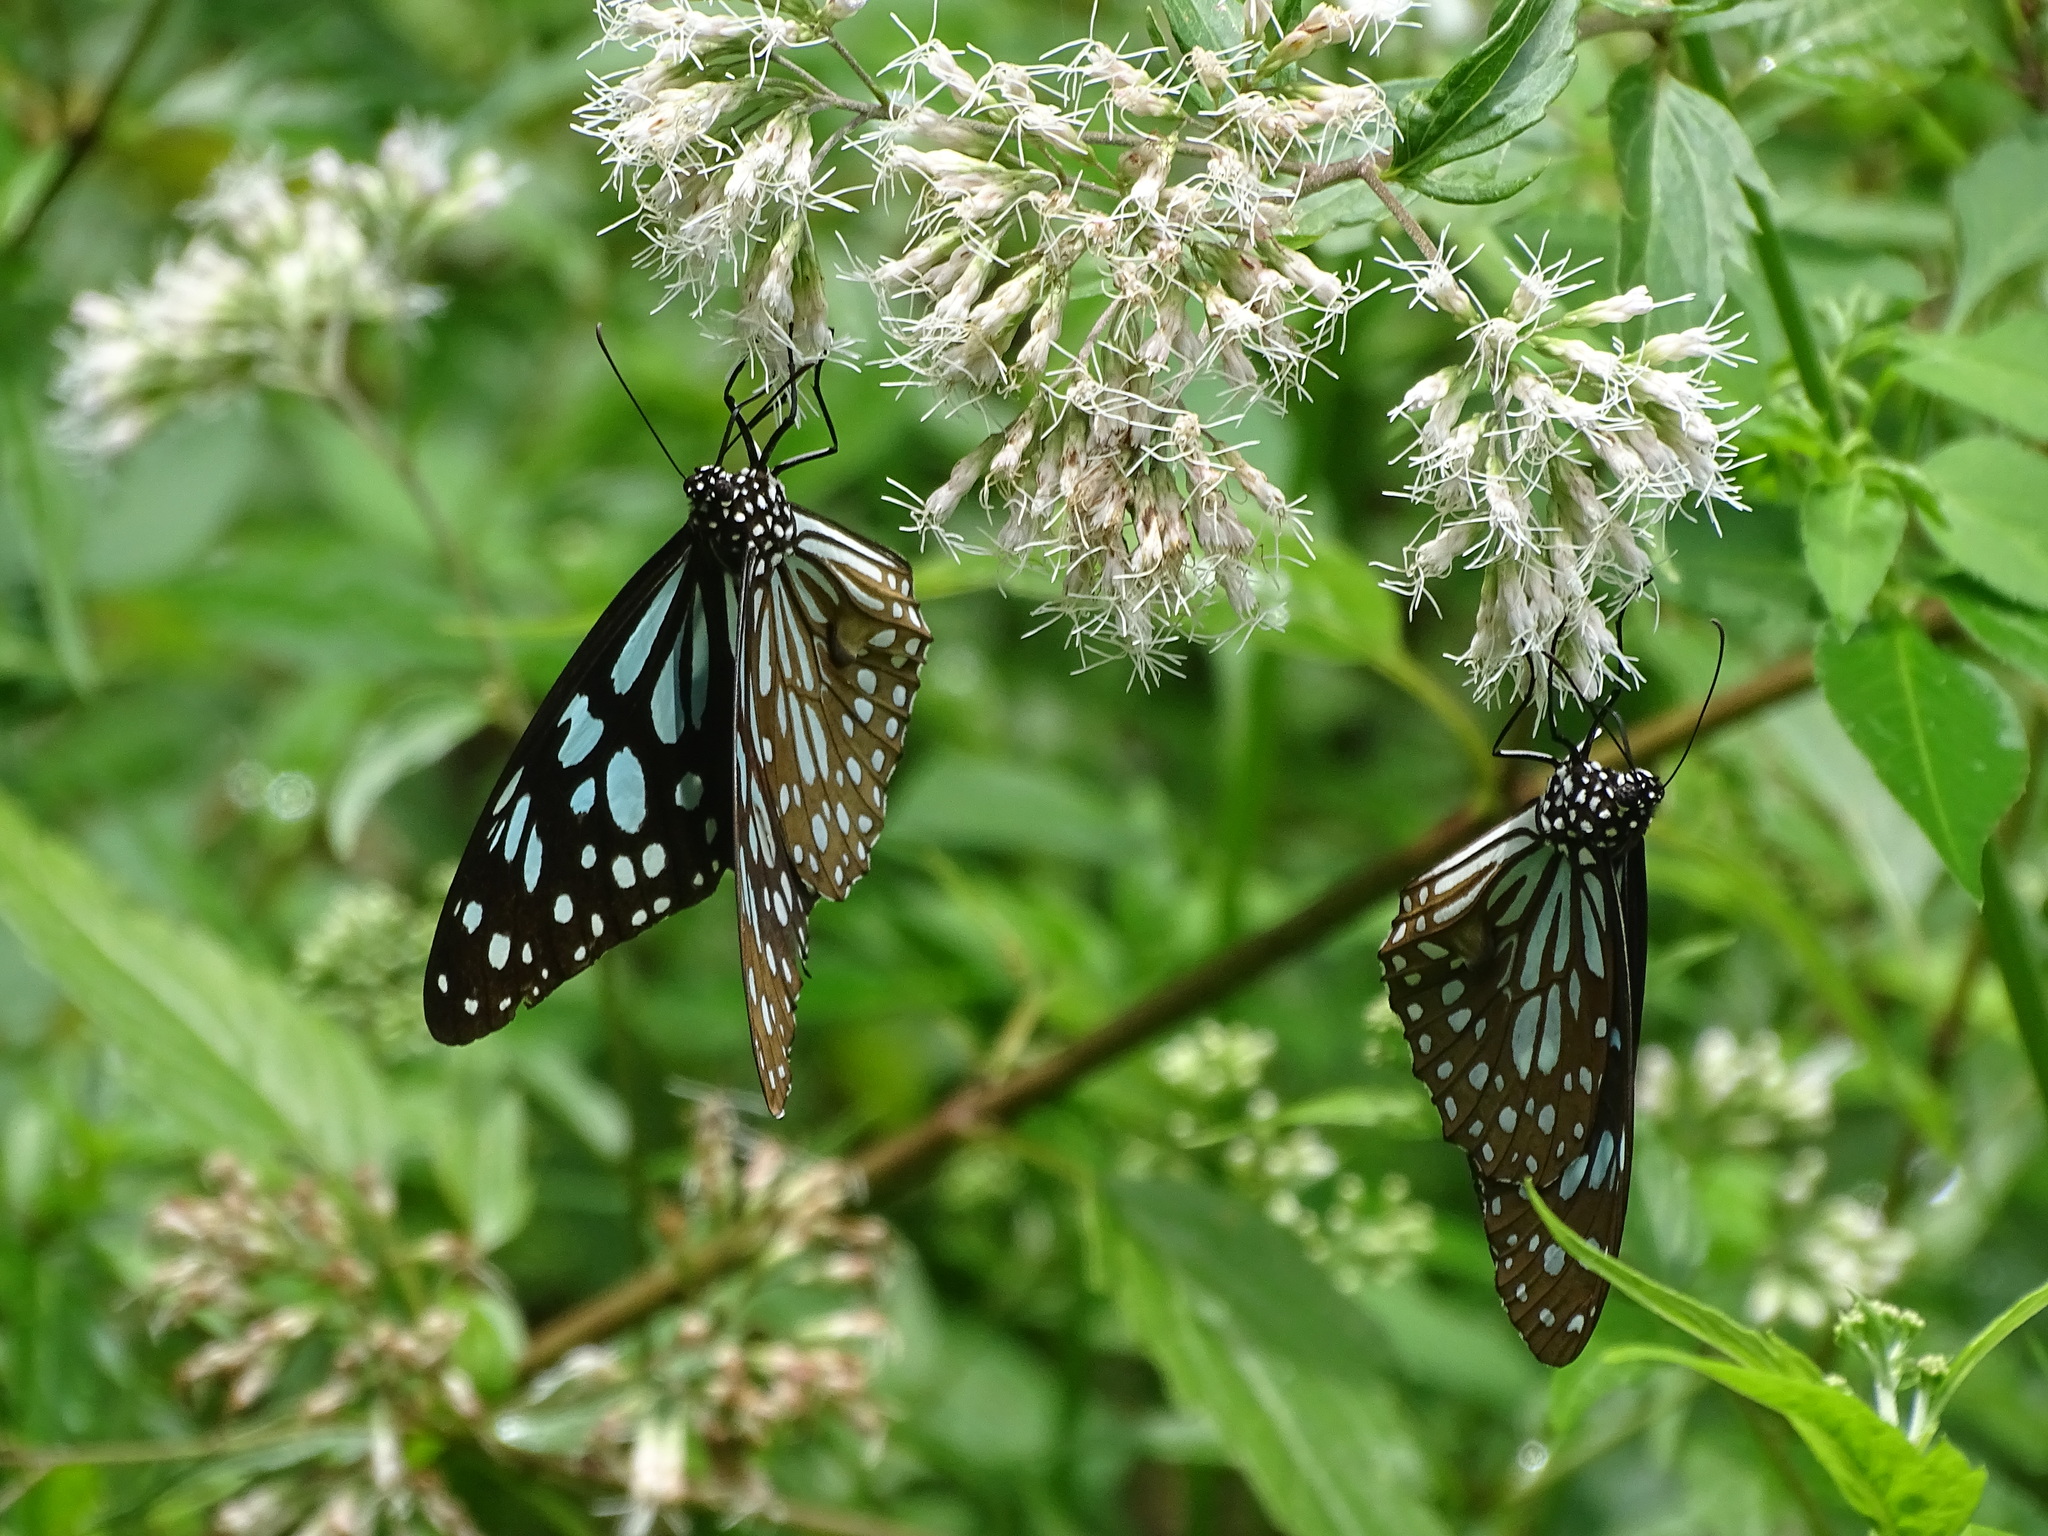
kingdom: Animalia
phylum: Arthropoda
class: Insecta
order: Lepidoptera
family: Nymphalidae
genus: Tirumala
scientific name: Tirumala limniace
